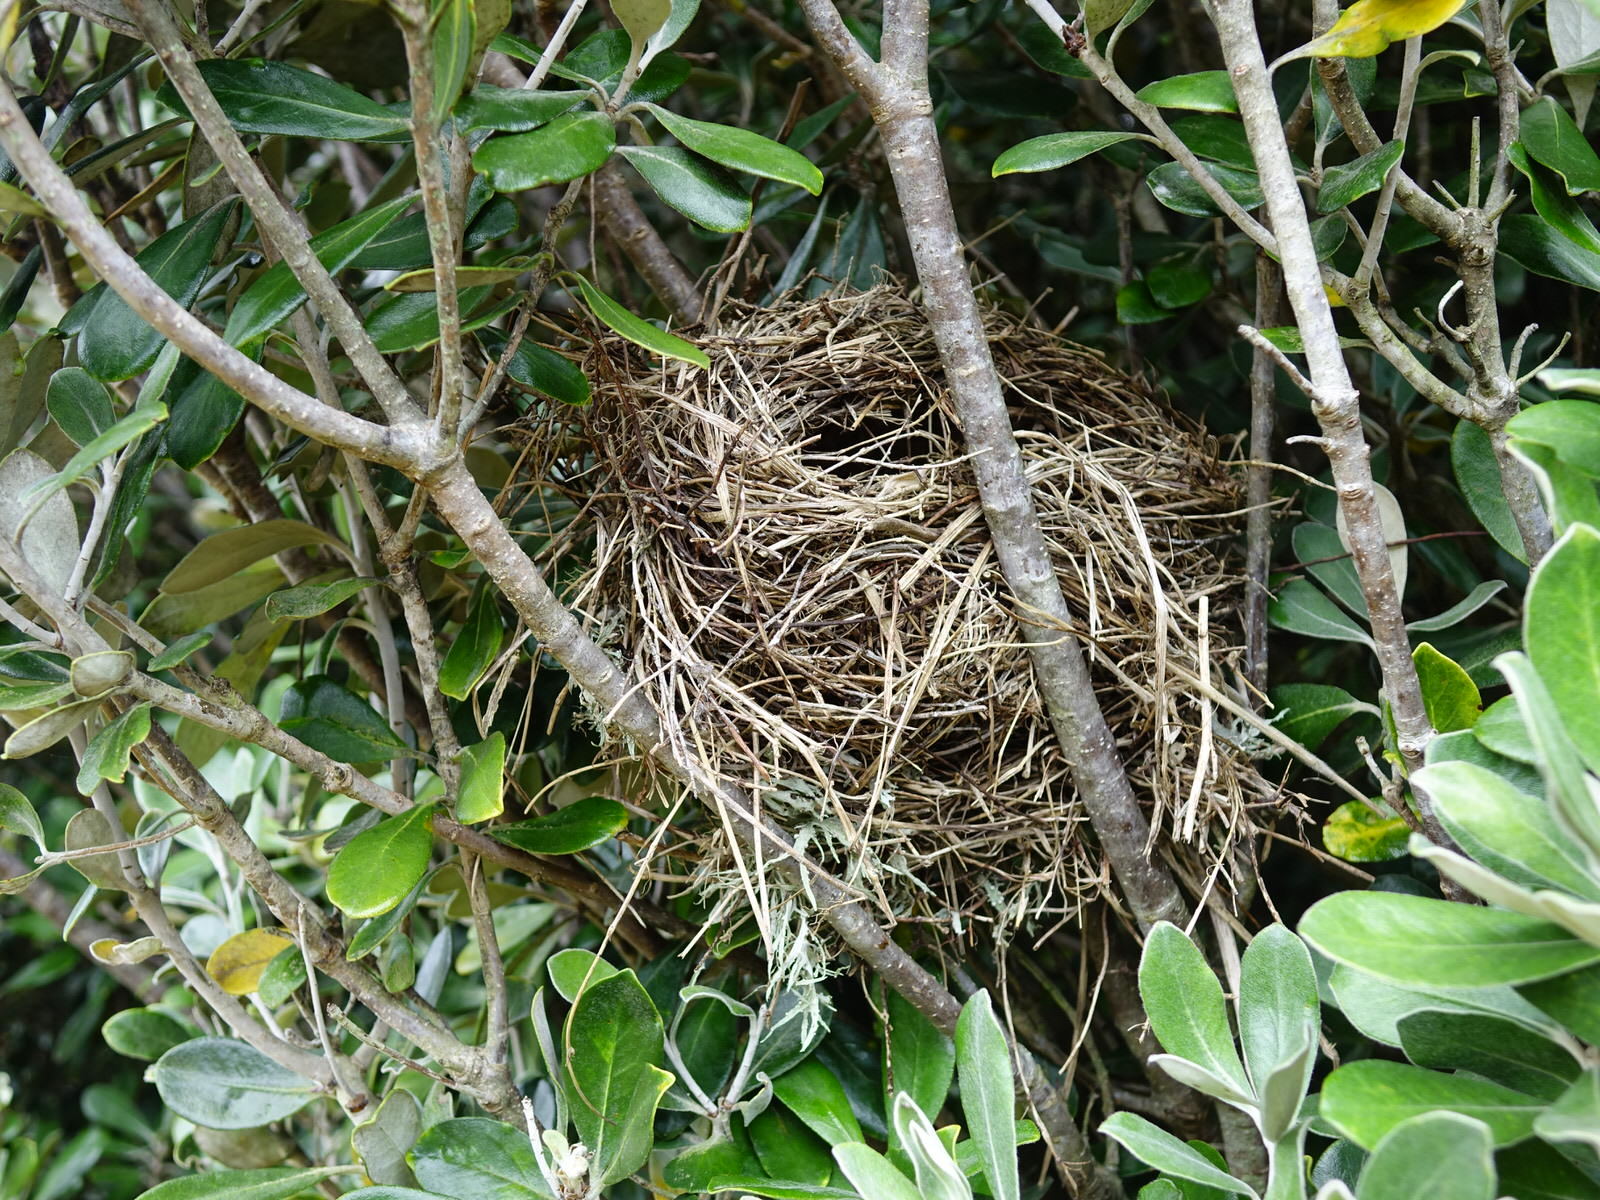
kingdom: Animalia
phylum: Chordata
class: Aves
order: Passeriformes
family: Turdidae
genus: Turdus
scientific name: Turdus philomelos
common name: Song thrush
